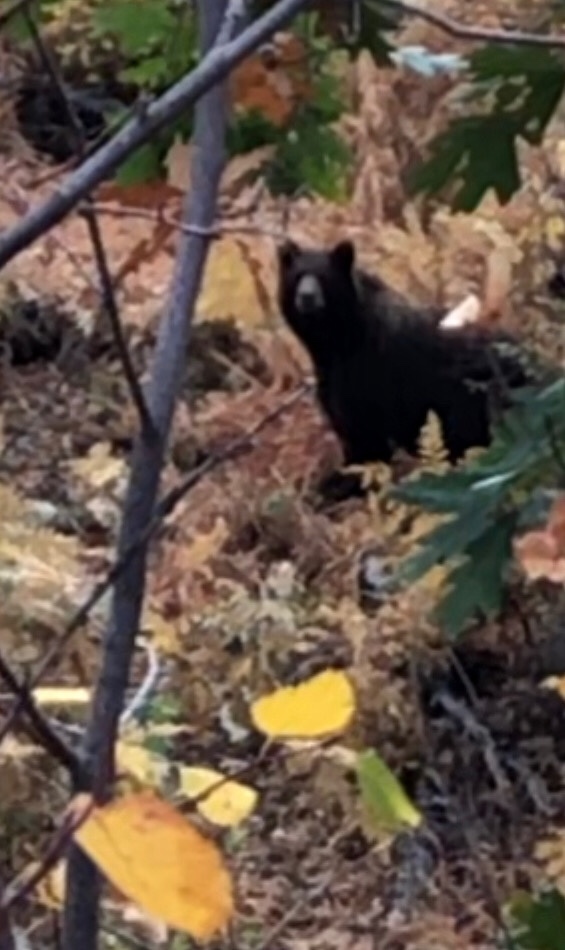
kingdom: Animalia
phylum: Chordata
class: Mammalia
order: Carnivora
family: Ursidae
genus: Ursus
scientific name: Ursus americanus
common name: American black bear
